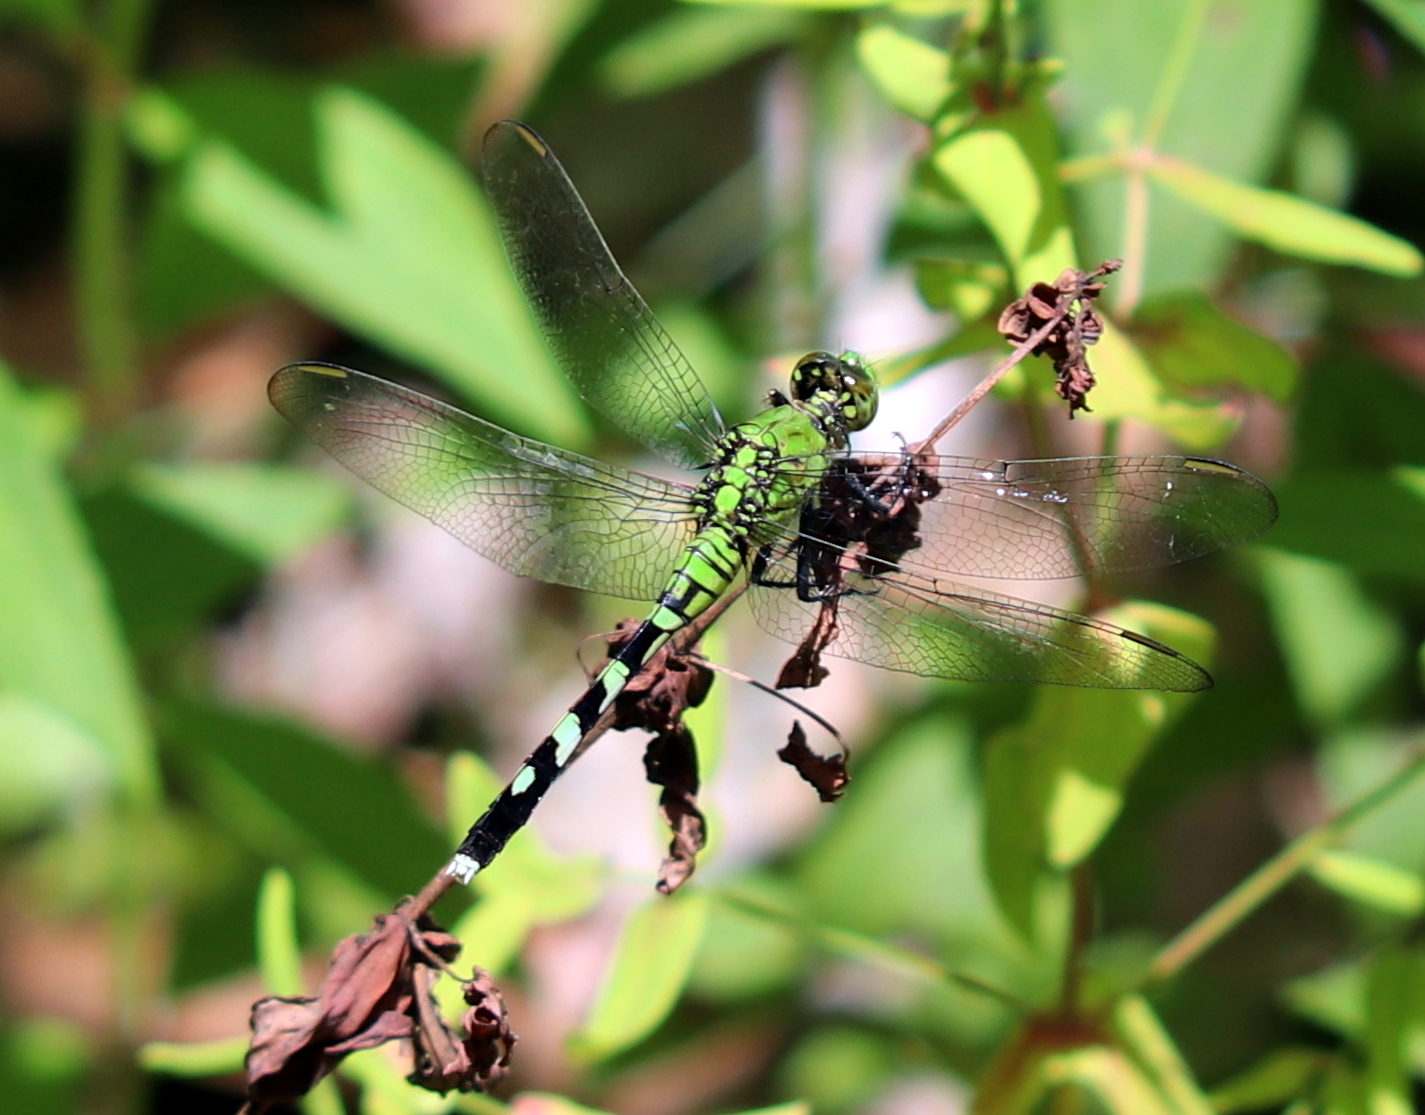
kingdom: Animalia
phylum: Arthropoda
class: Insecta
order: Odonata
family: Libellulidae
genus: Erythemis
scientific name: Erythemis simplicicollis
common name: Eastern pondhawk
